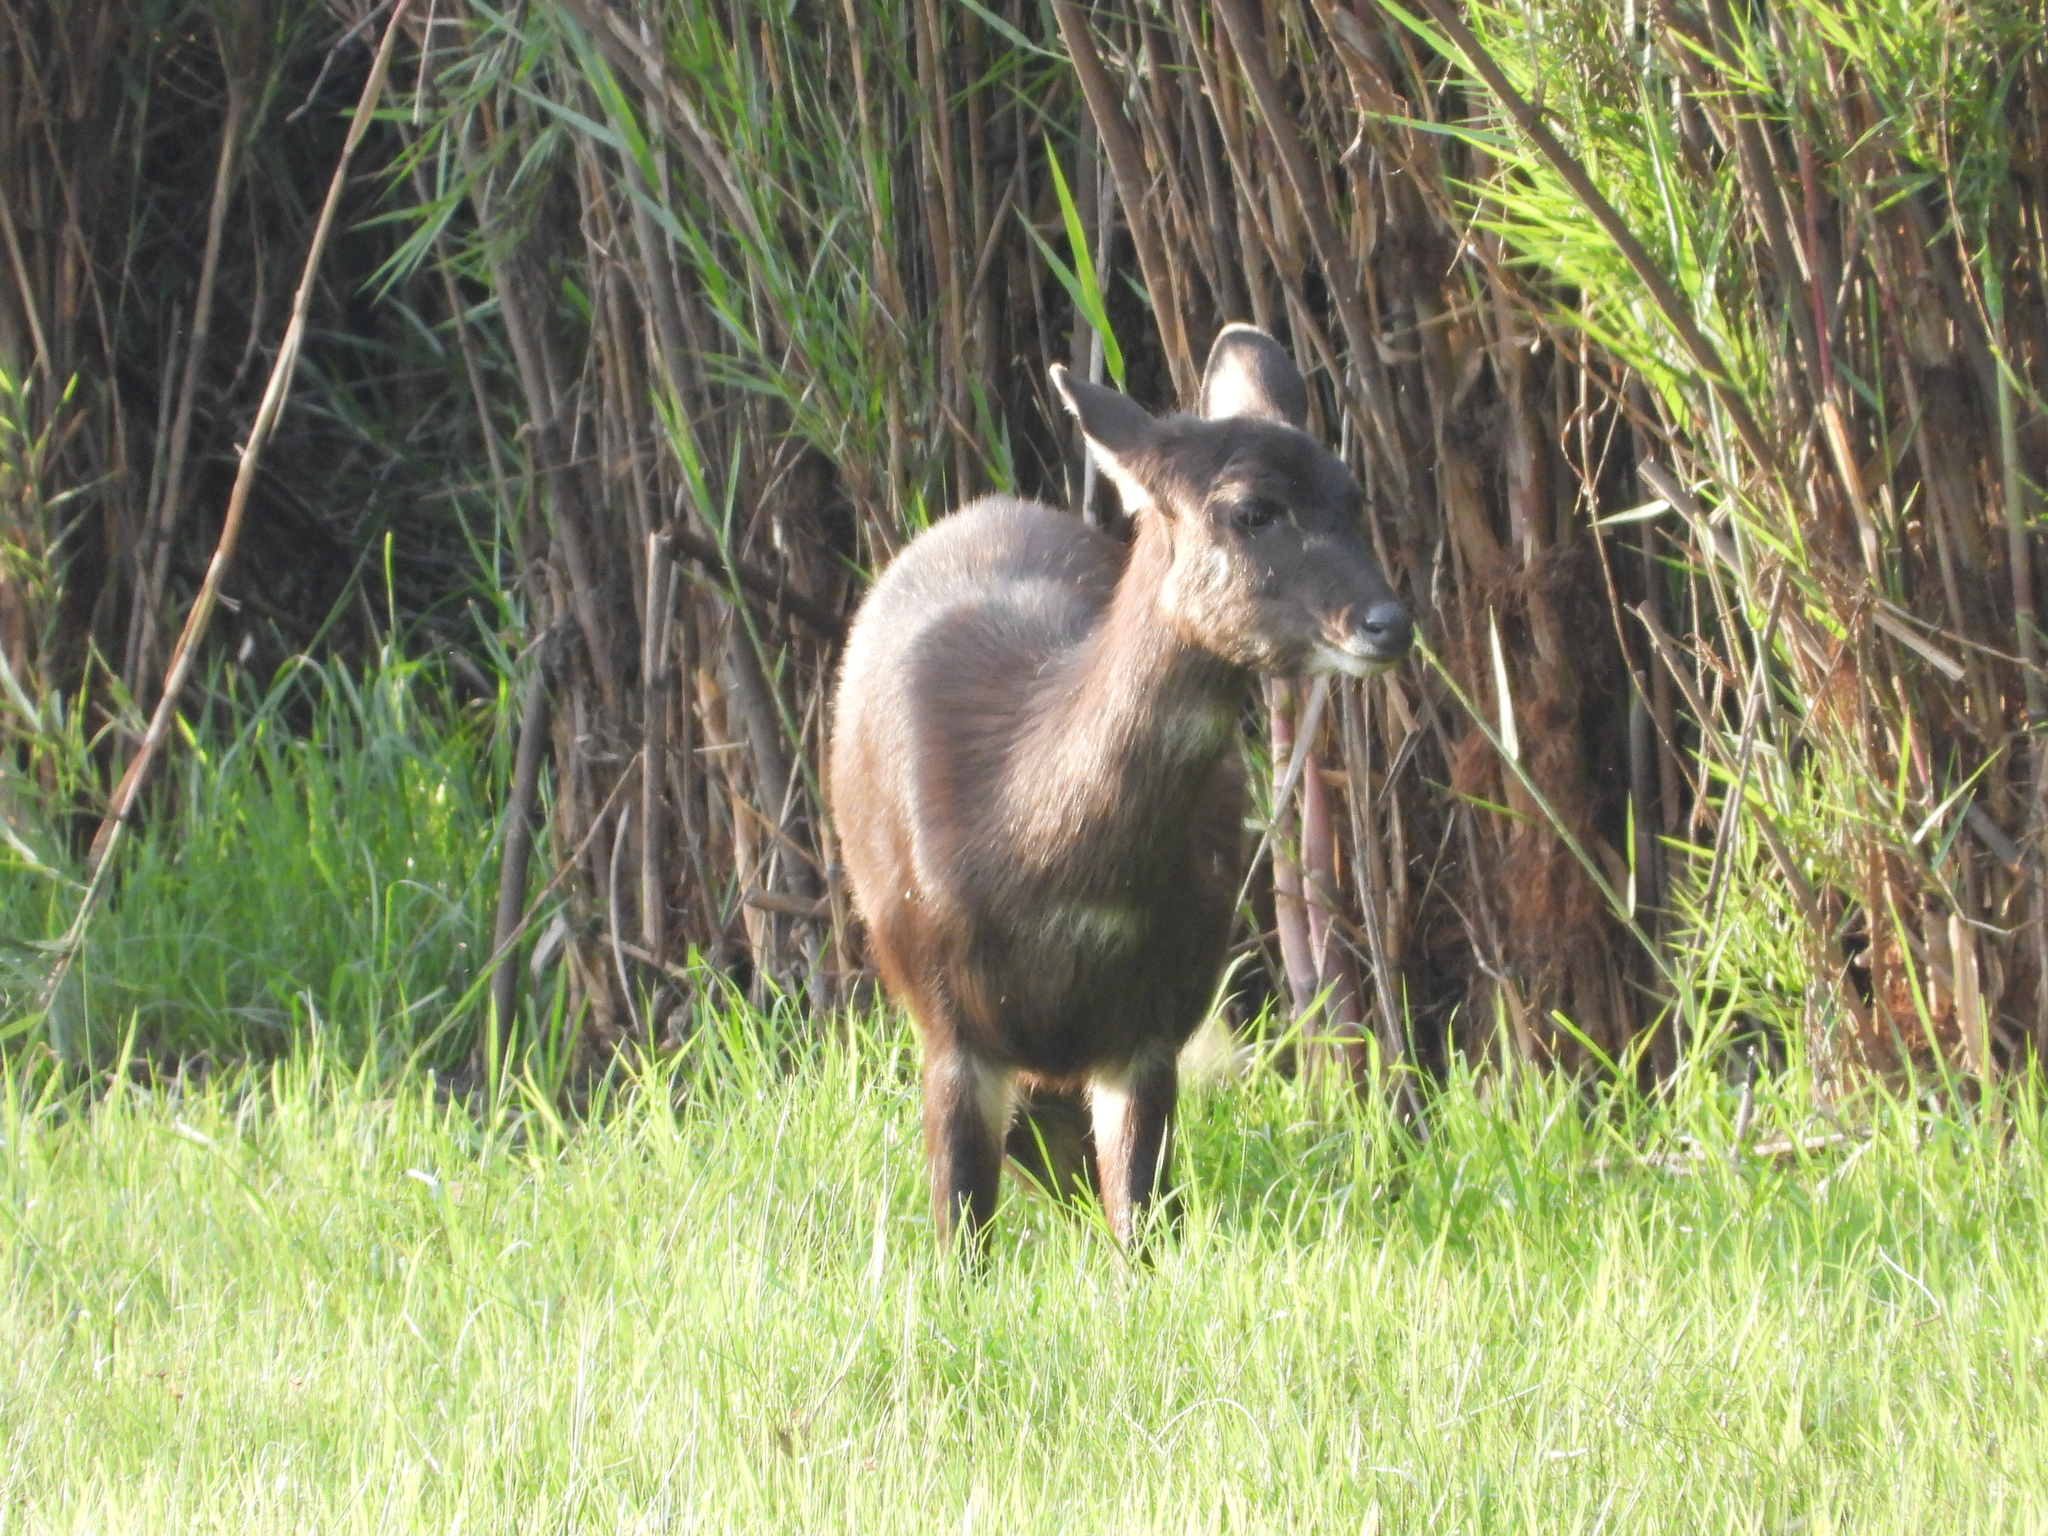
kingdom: Animalia
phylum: Chordata
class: Mammalia
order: Artiodactyla
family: Bovidae
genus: Tragelaphus
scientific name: Tragelaphus spekii
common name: Sitatunga
